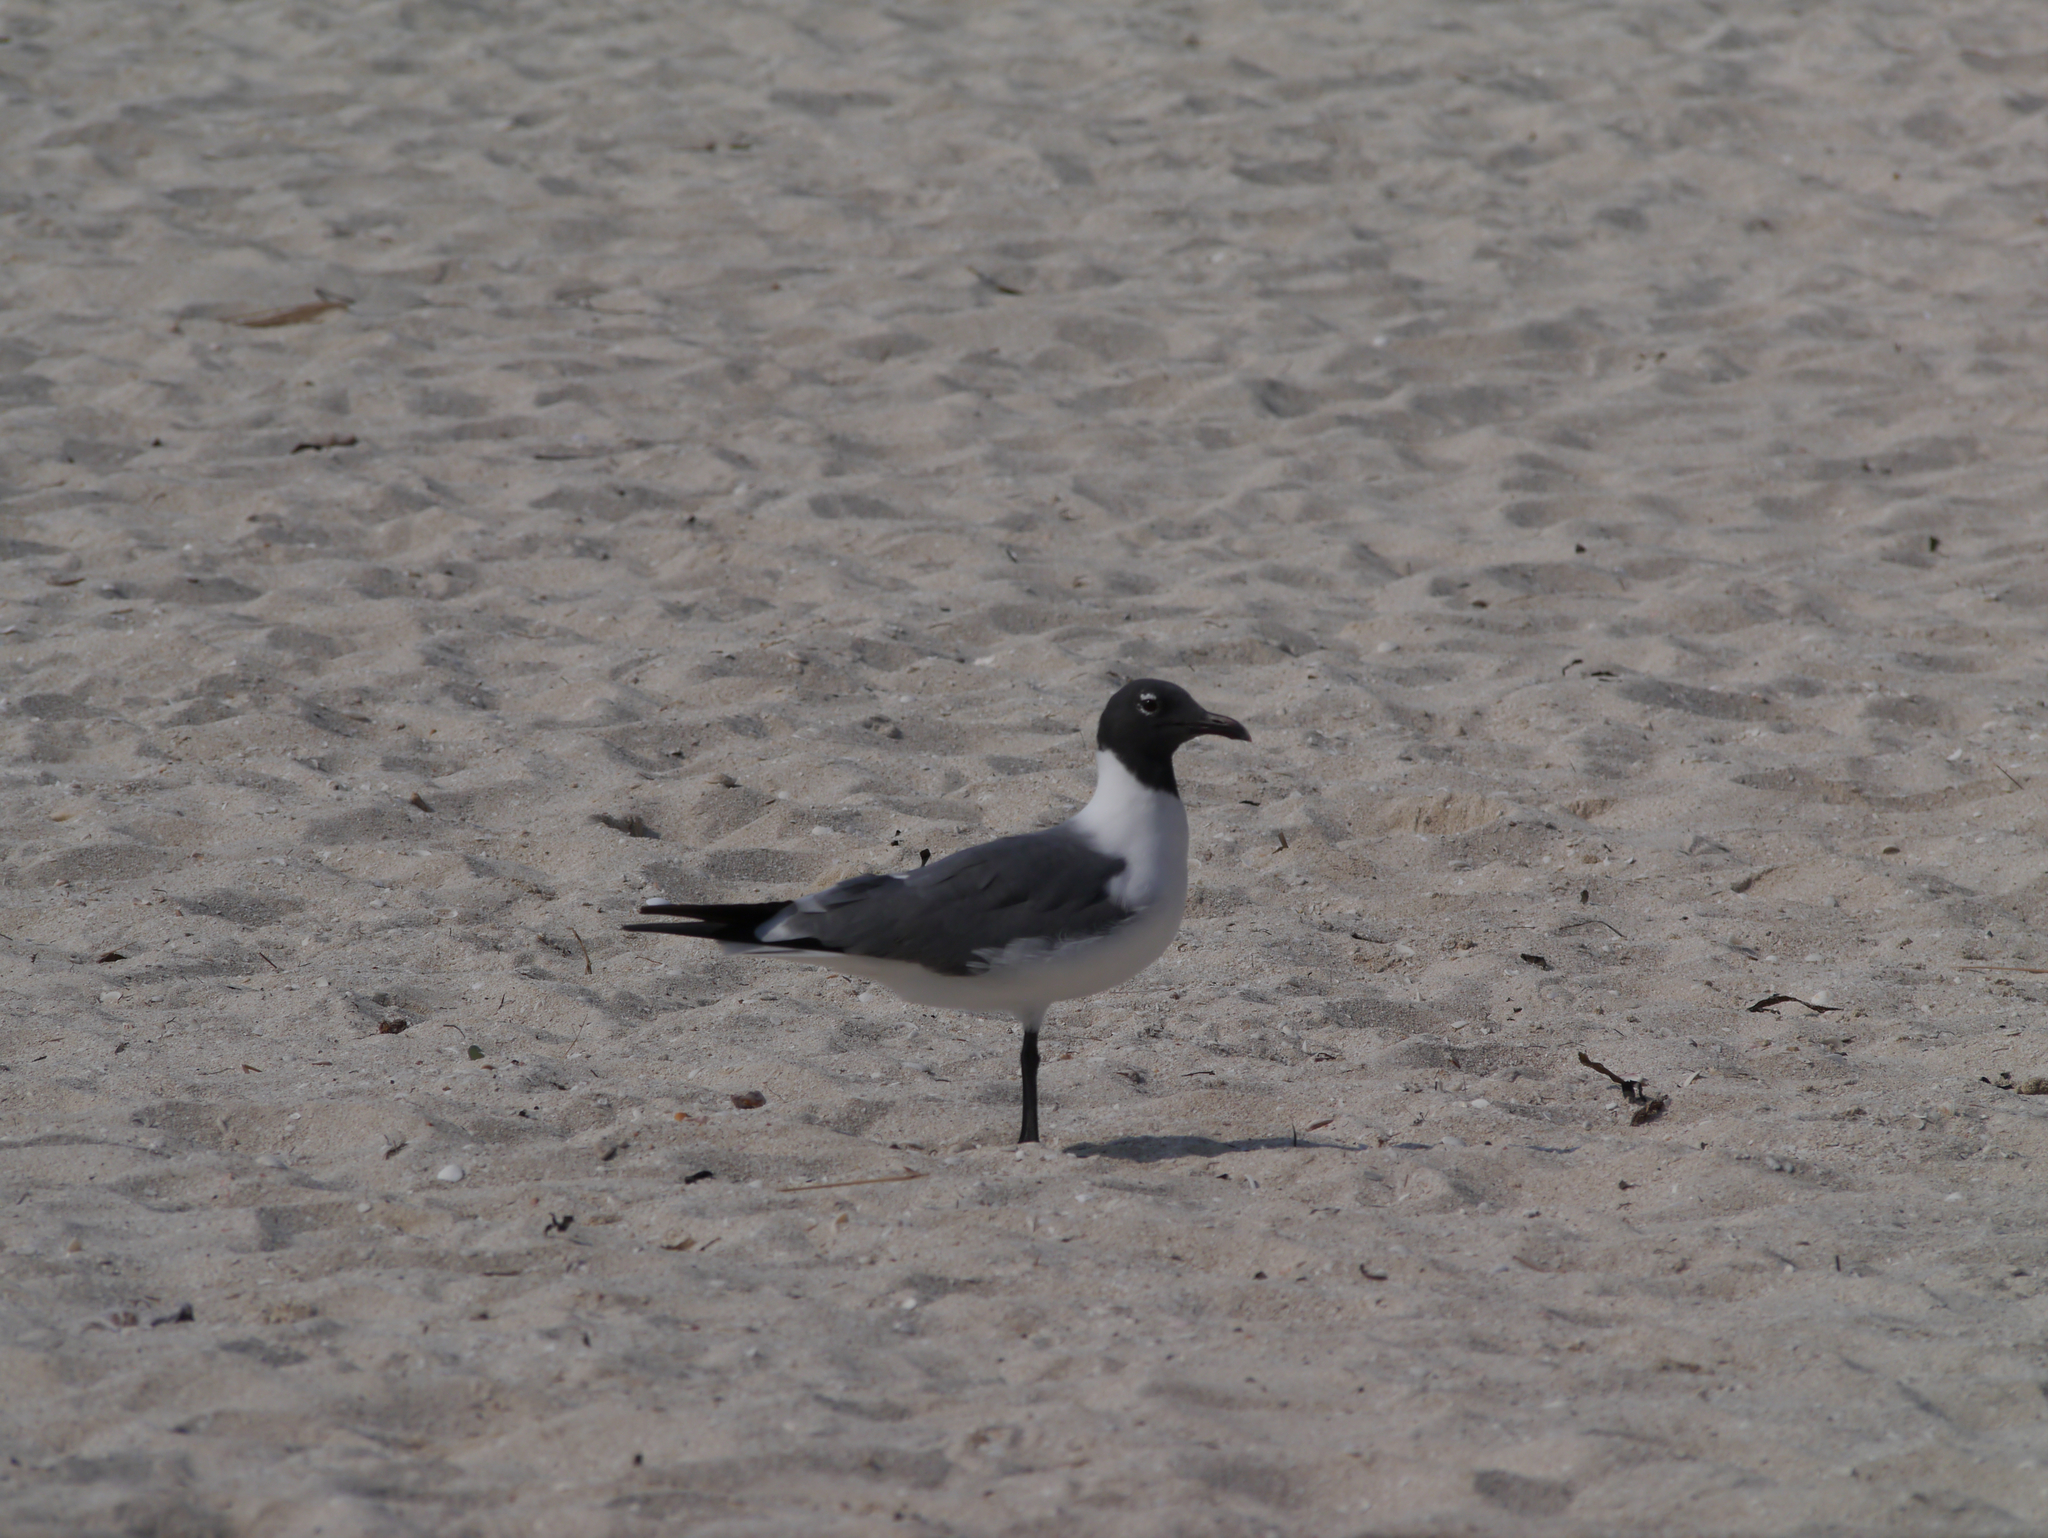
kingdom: Animalia
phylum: Chordata
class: Aves
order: Charadriiformes
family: Laridae
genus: Leucophaeus
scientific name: Leucophaeus atricilla
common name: Laughing gull
